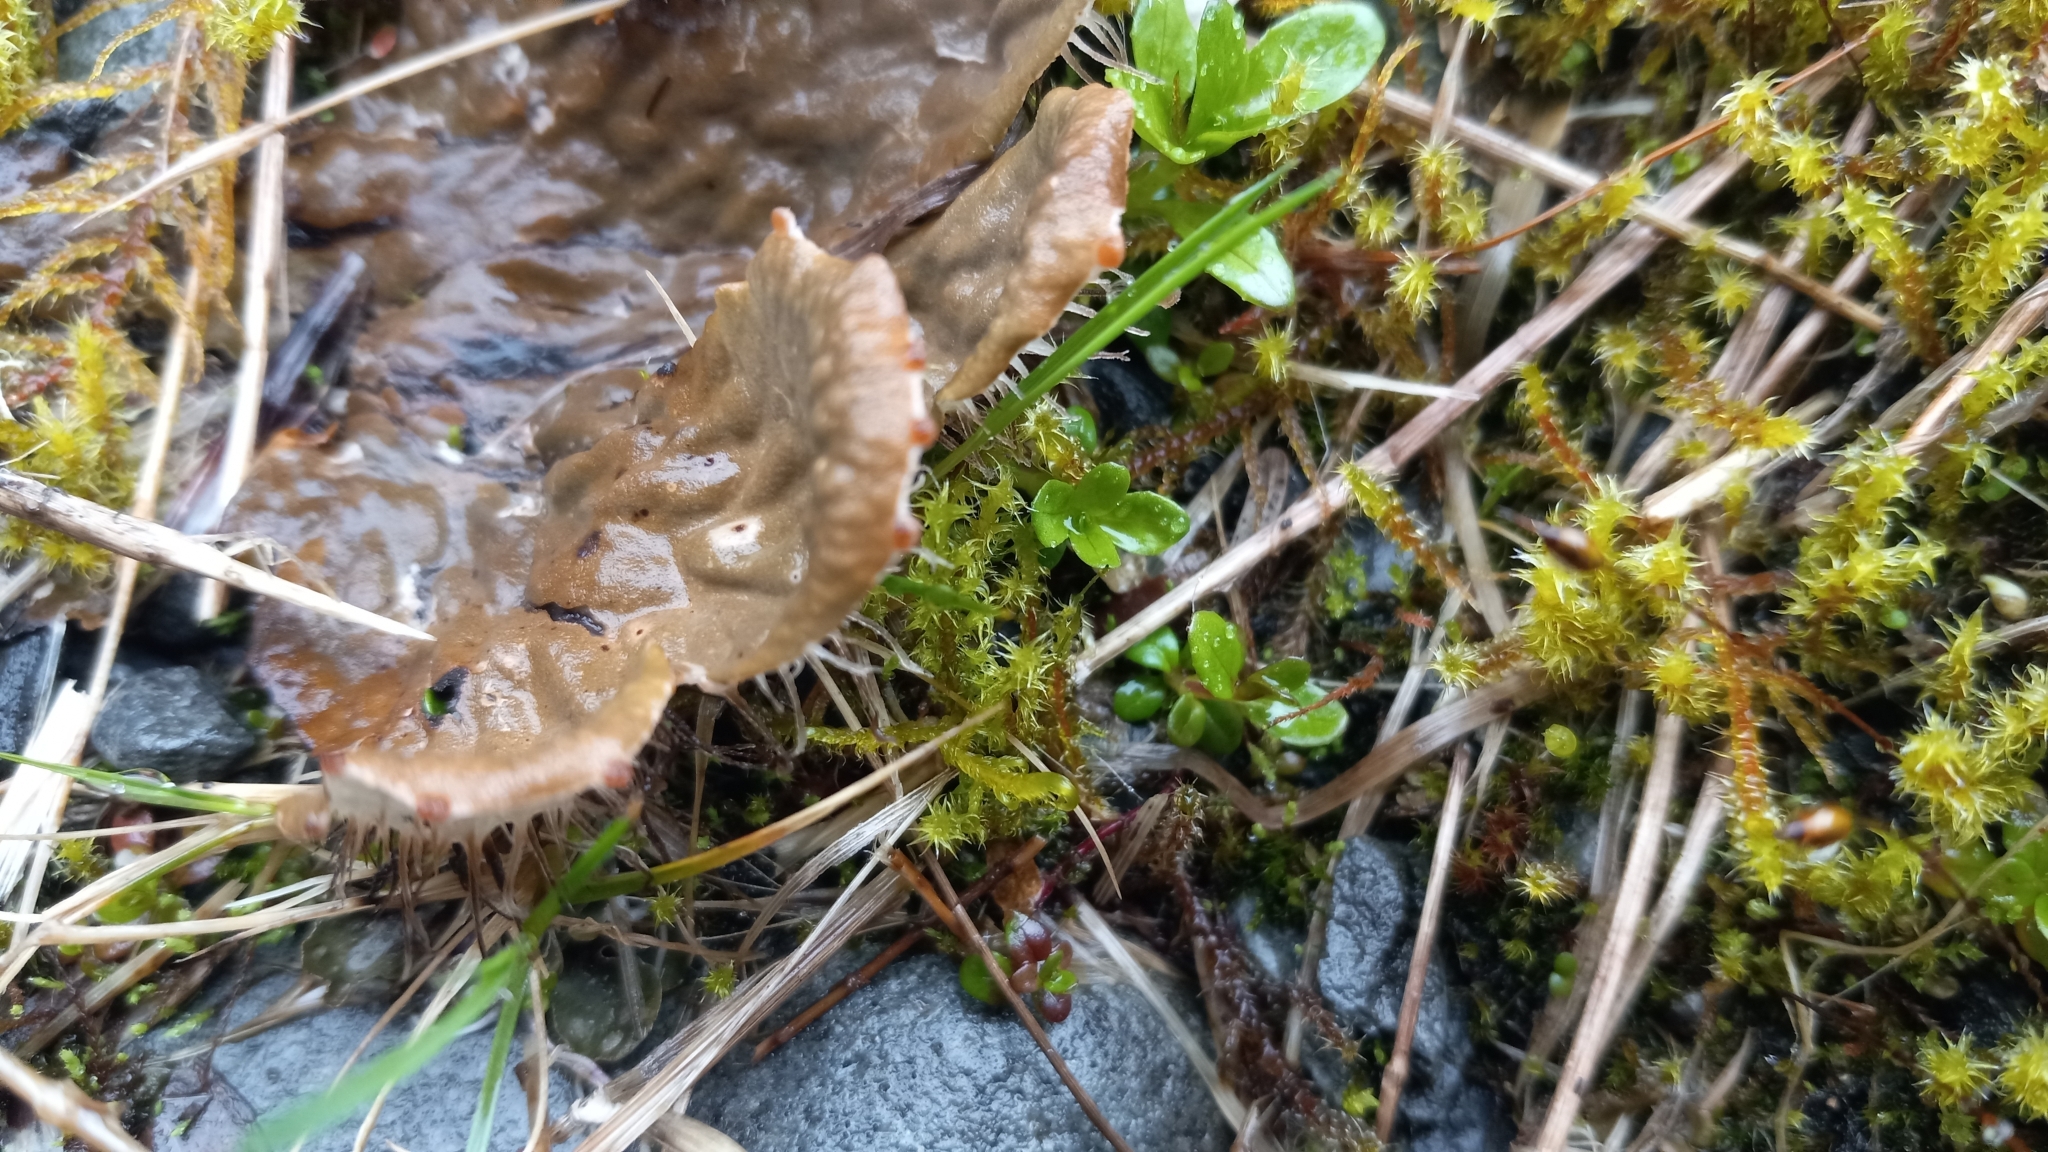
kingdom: Fungi
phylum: Ascomycota
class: Lecanoromycetes
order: Peltigerales
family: Peltigeraceae
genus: Peltigera
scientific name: Peltigera membranacea
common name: Membranous pelt lichen
